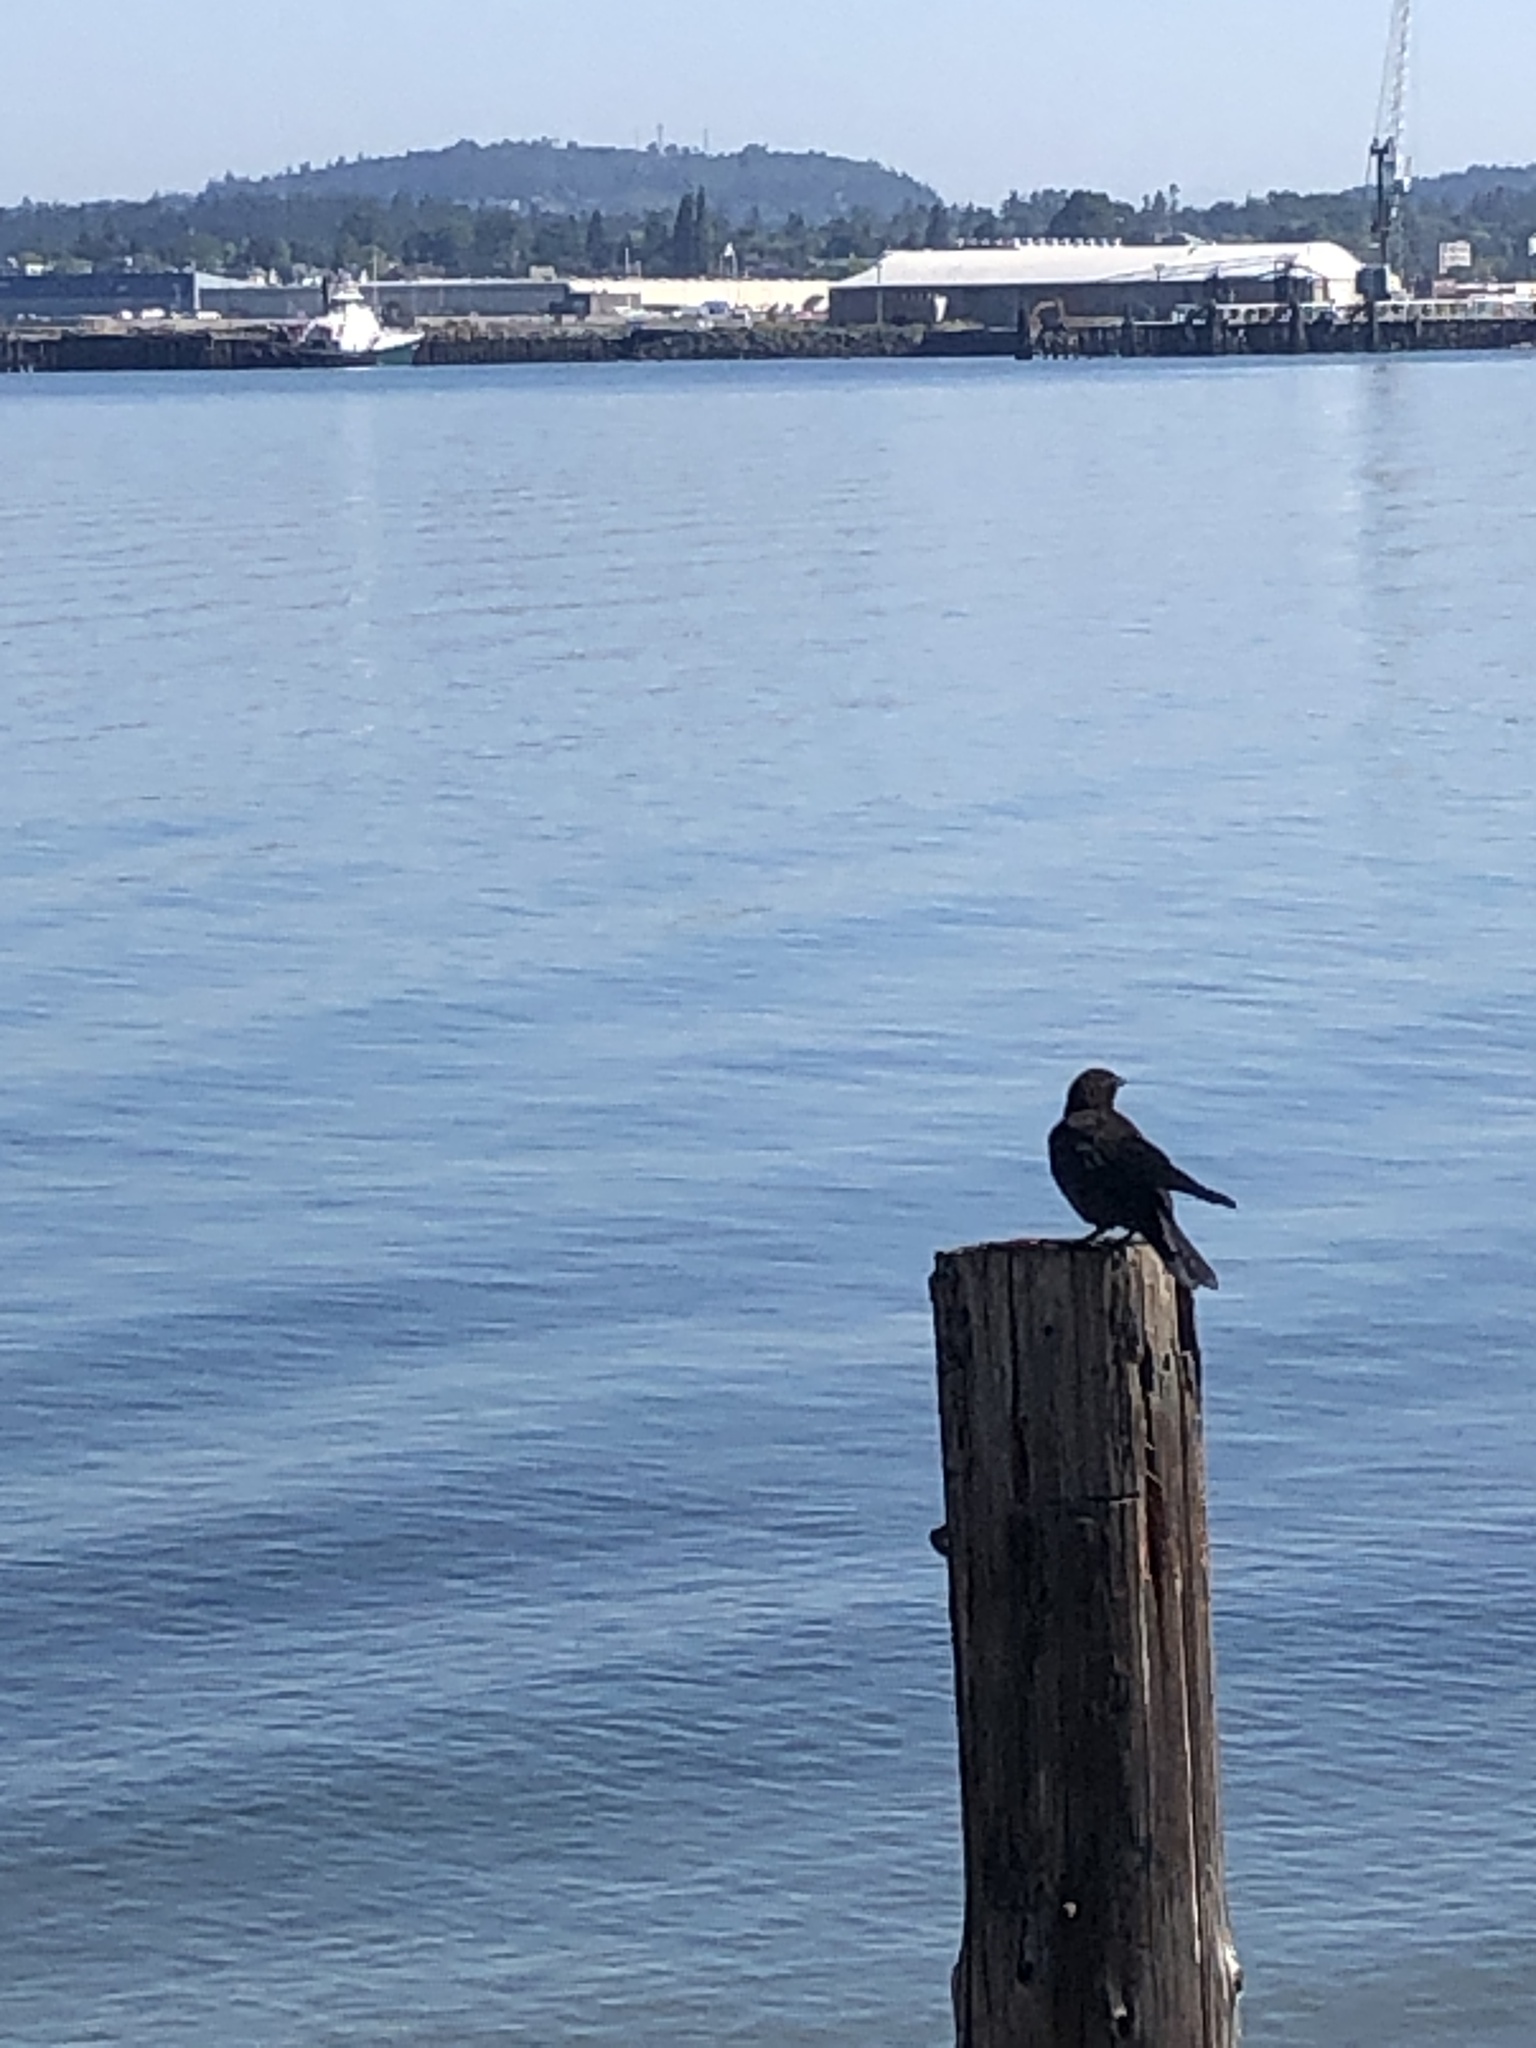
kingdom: Animalia
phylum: Chordata
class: Aves
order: Passeriformes
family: Corvidae
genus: Corvus
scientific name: Corvus brachyrhynchos
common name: American crow
